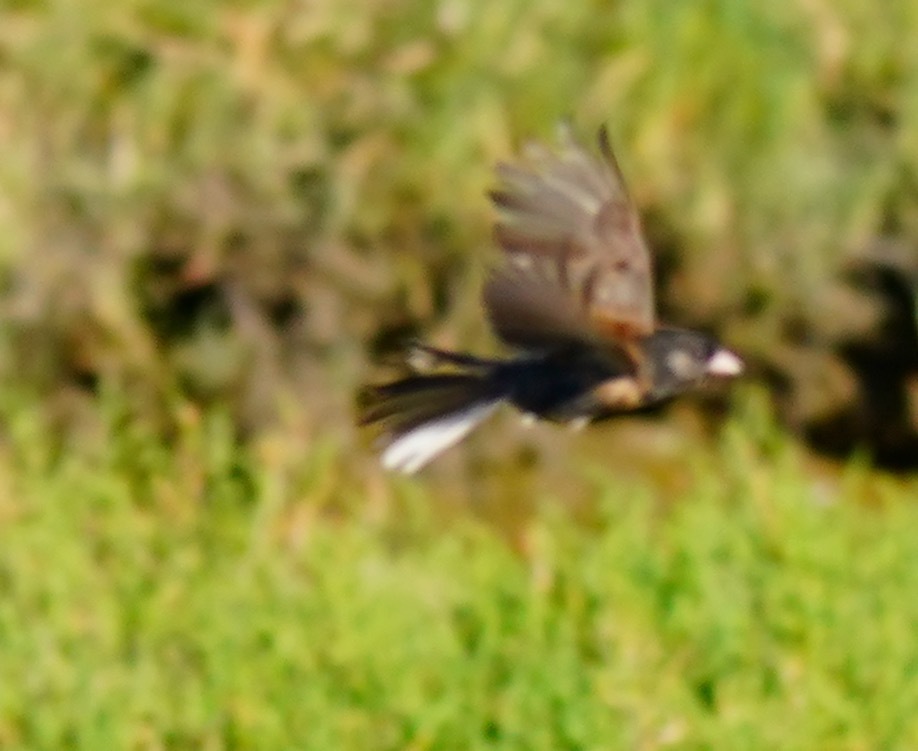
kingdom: Animalia
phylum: Chordata
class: Aves
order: Passeriformes
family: Passerellidae
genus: Junco
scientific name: Junco hyemalis
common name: Dark-eyed junco
